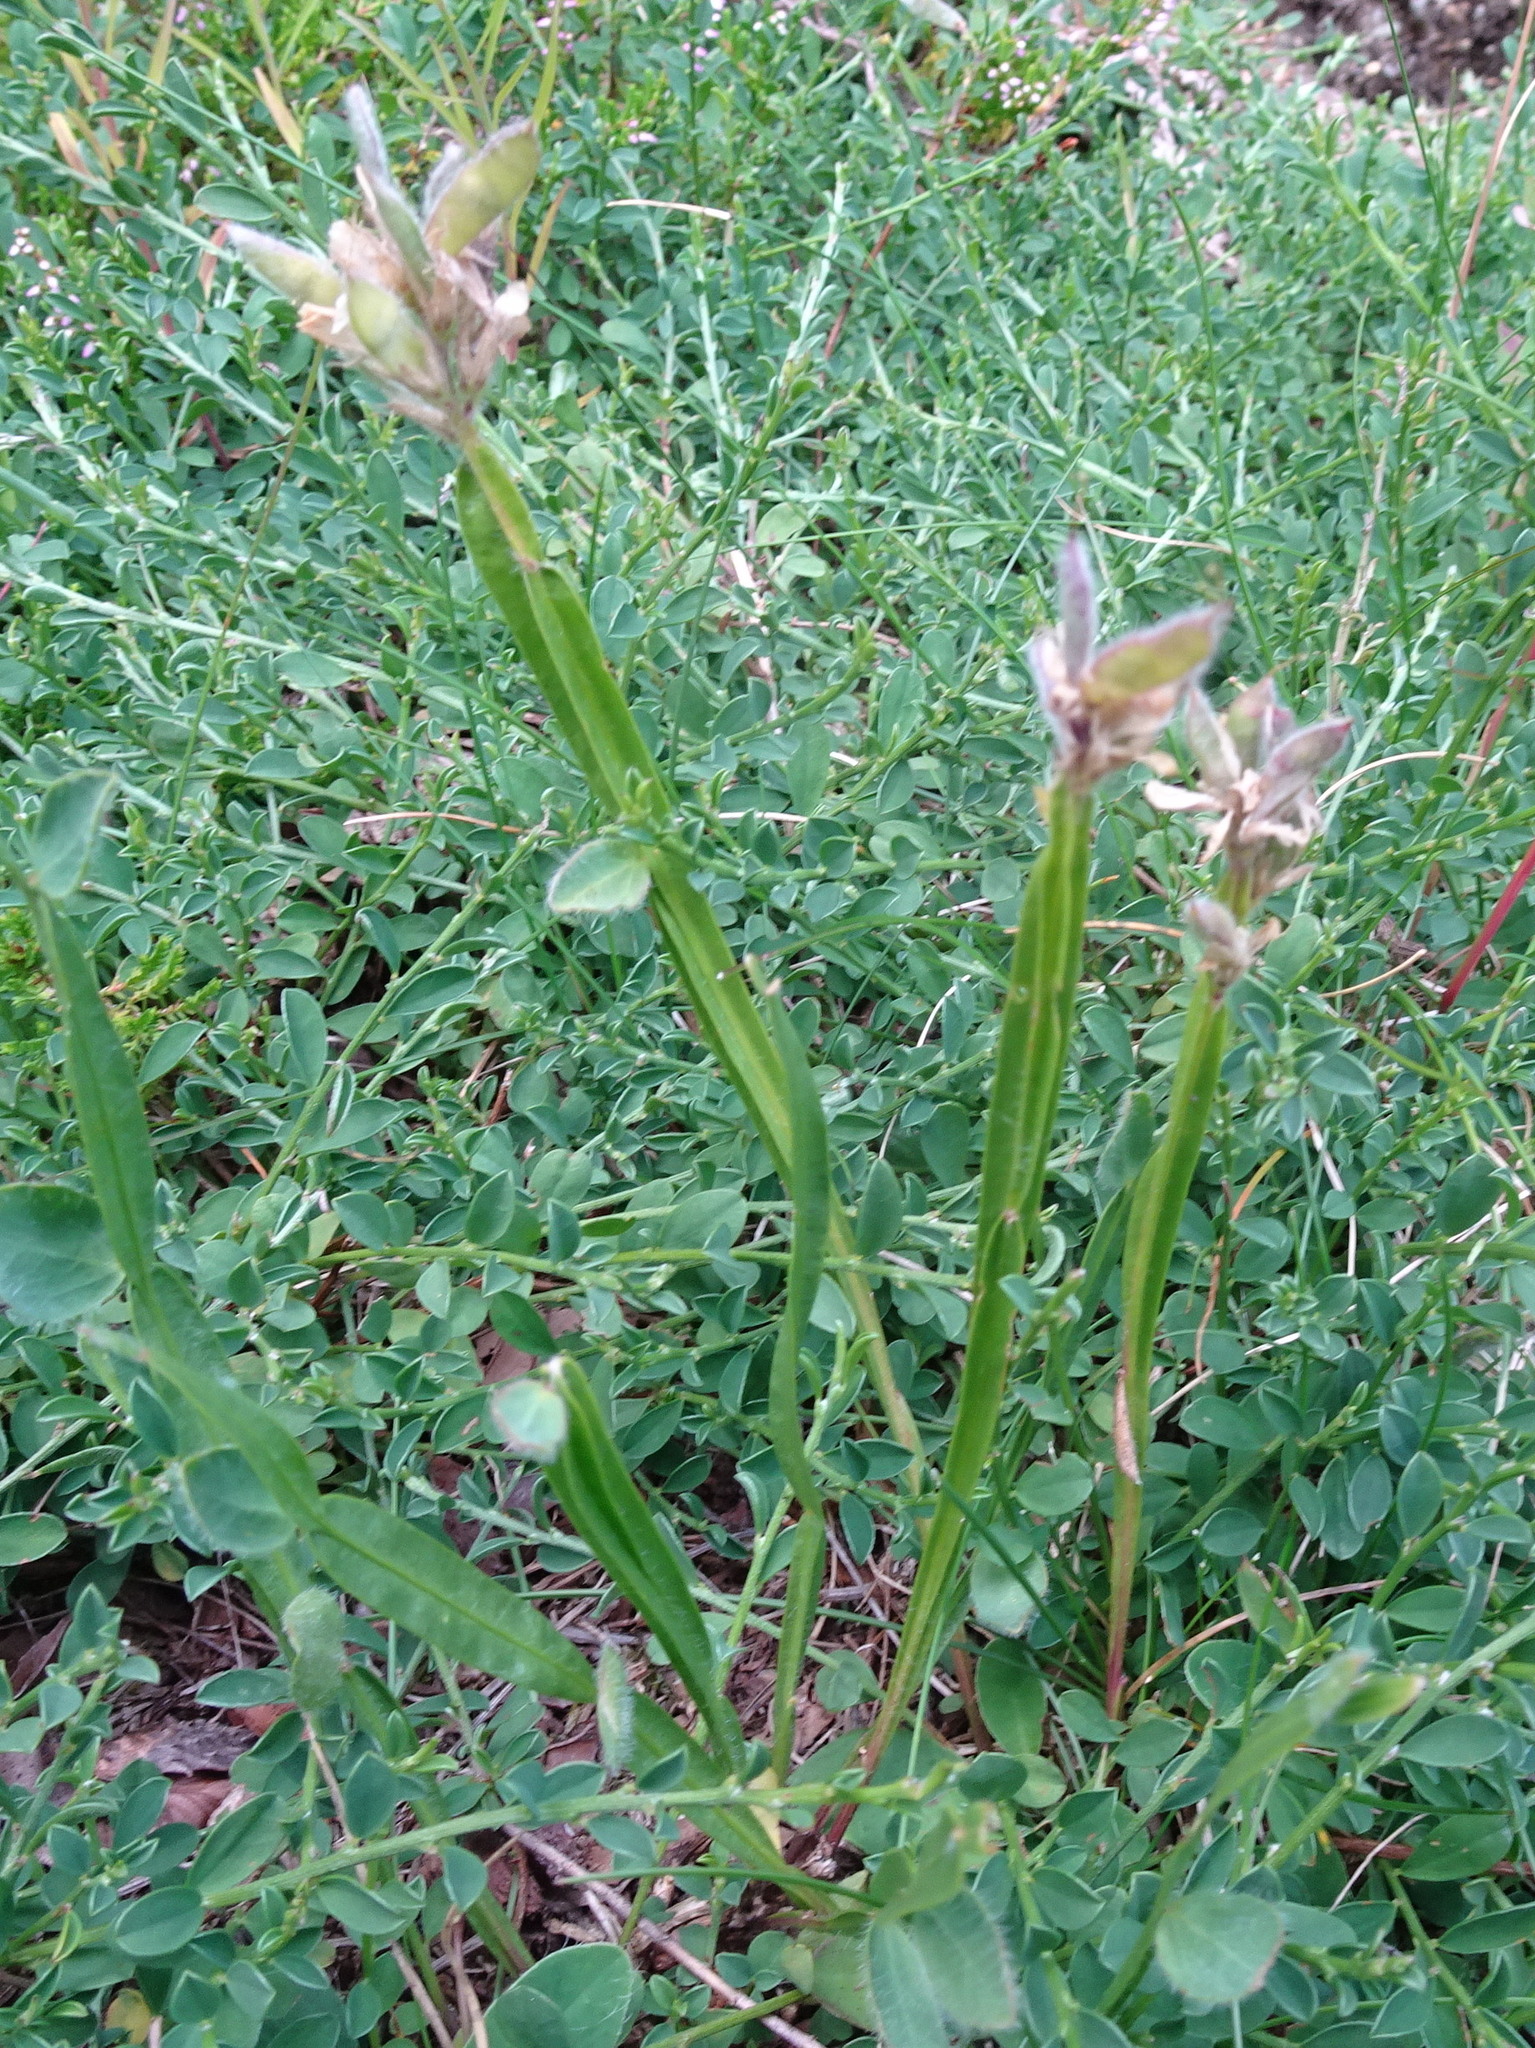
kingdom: Plantae
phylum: Tracheophyta
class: Magnoliopsida
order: Fabales
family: Fabaceae
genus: Genista
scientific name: Genista sagittalis
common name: Winged greenweed
